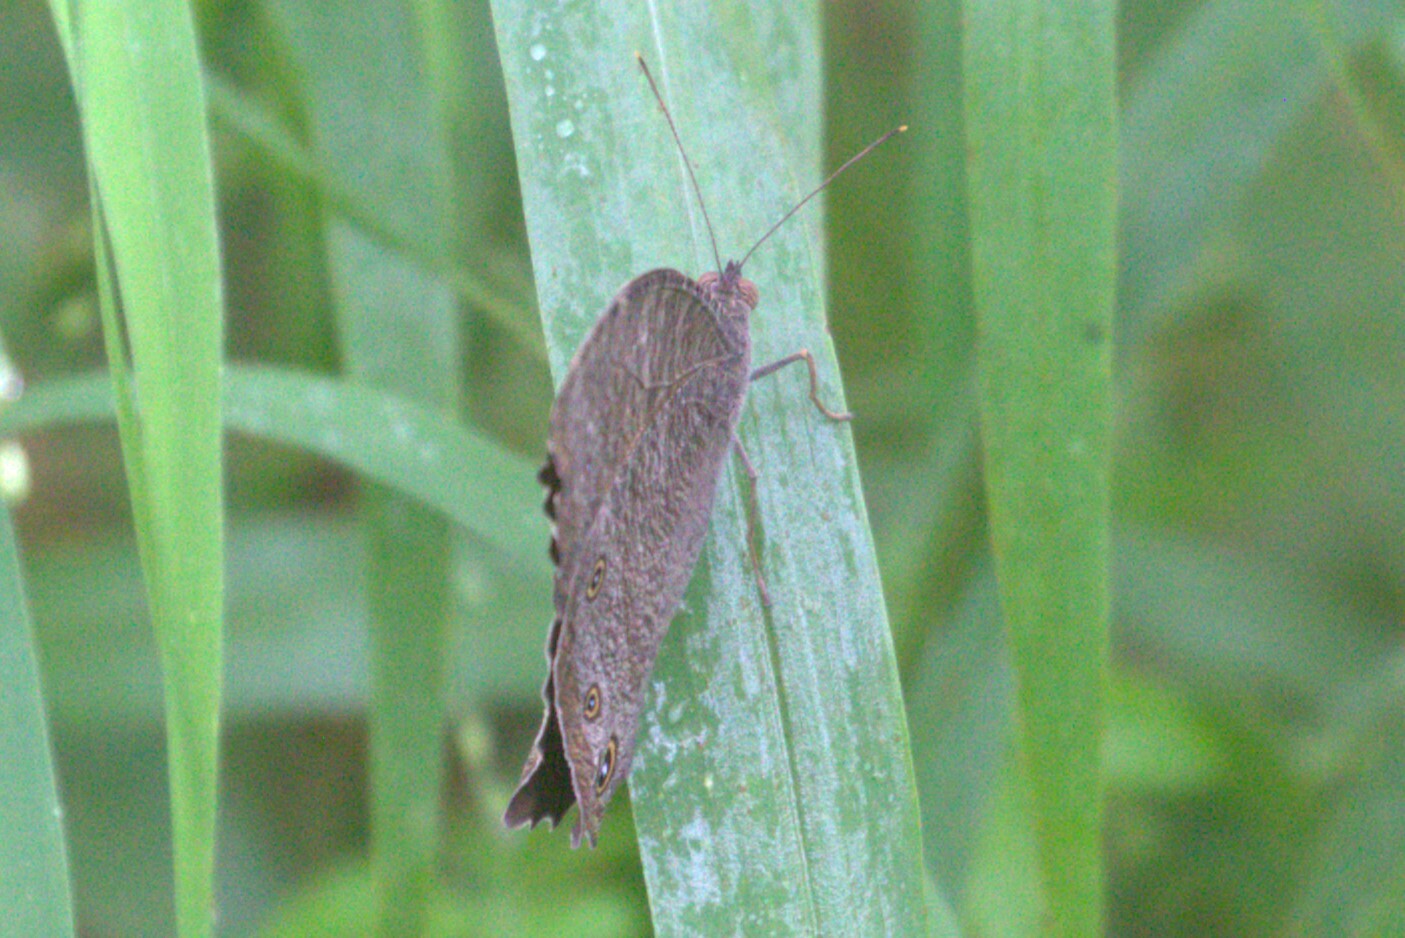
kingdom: Animalia
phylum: Arthropoda
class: Insecta
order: Lepidoptera
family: Nymphalidae
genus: Melanitis
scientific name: Melanitis leda
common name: Twilight brown
